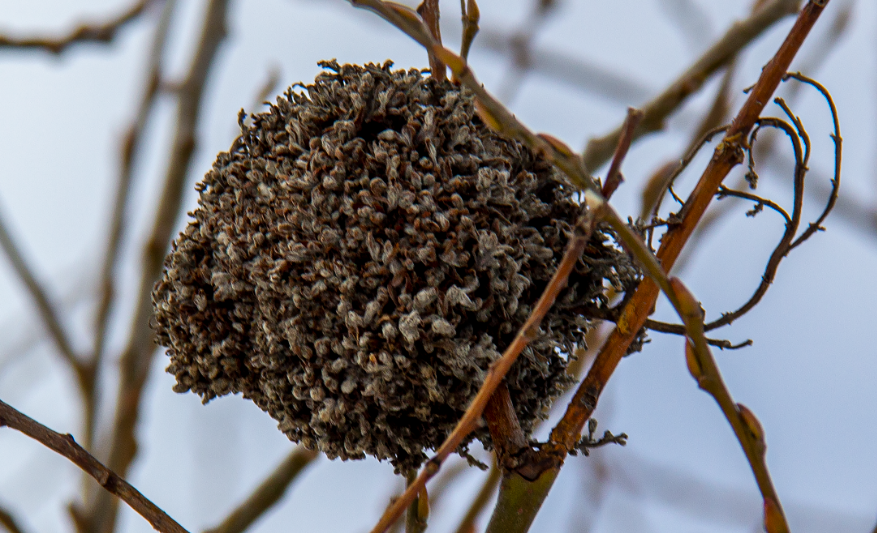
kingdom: Animalia
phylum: Arthropoda
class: Arachnida
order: Trombidiformes
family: Eriophyidae
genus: Stenacis
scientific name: Stenacis triradiatus
